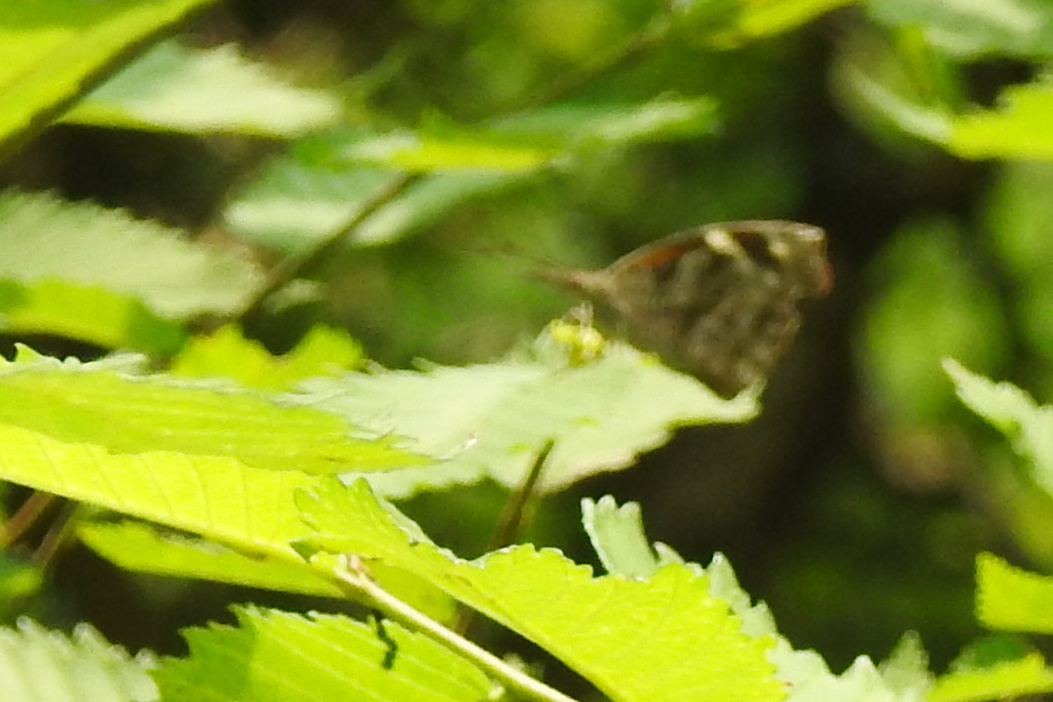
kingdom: Animalia
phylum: Arthropoda
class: Insecta
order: Lepidoptera
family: Nymphalidae
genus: Libytheana
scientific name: Libytheana carinenta
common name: American snout
